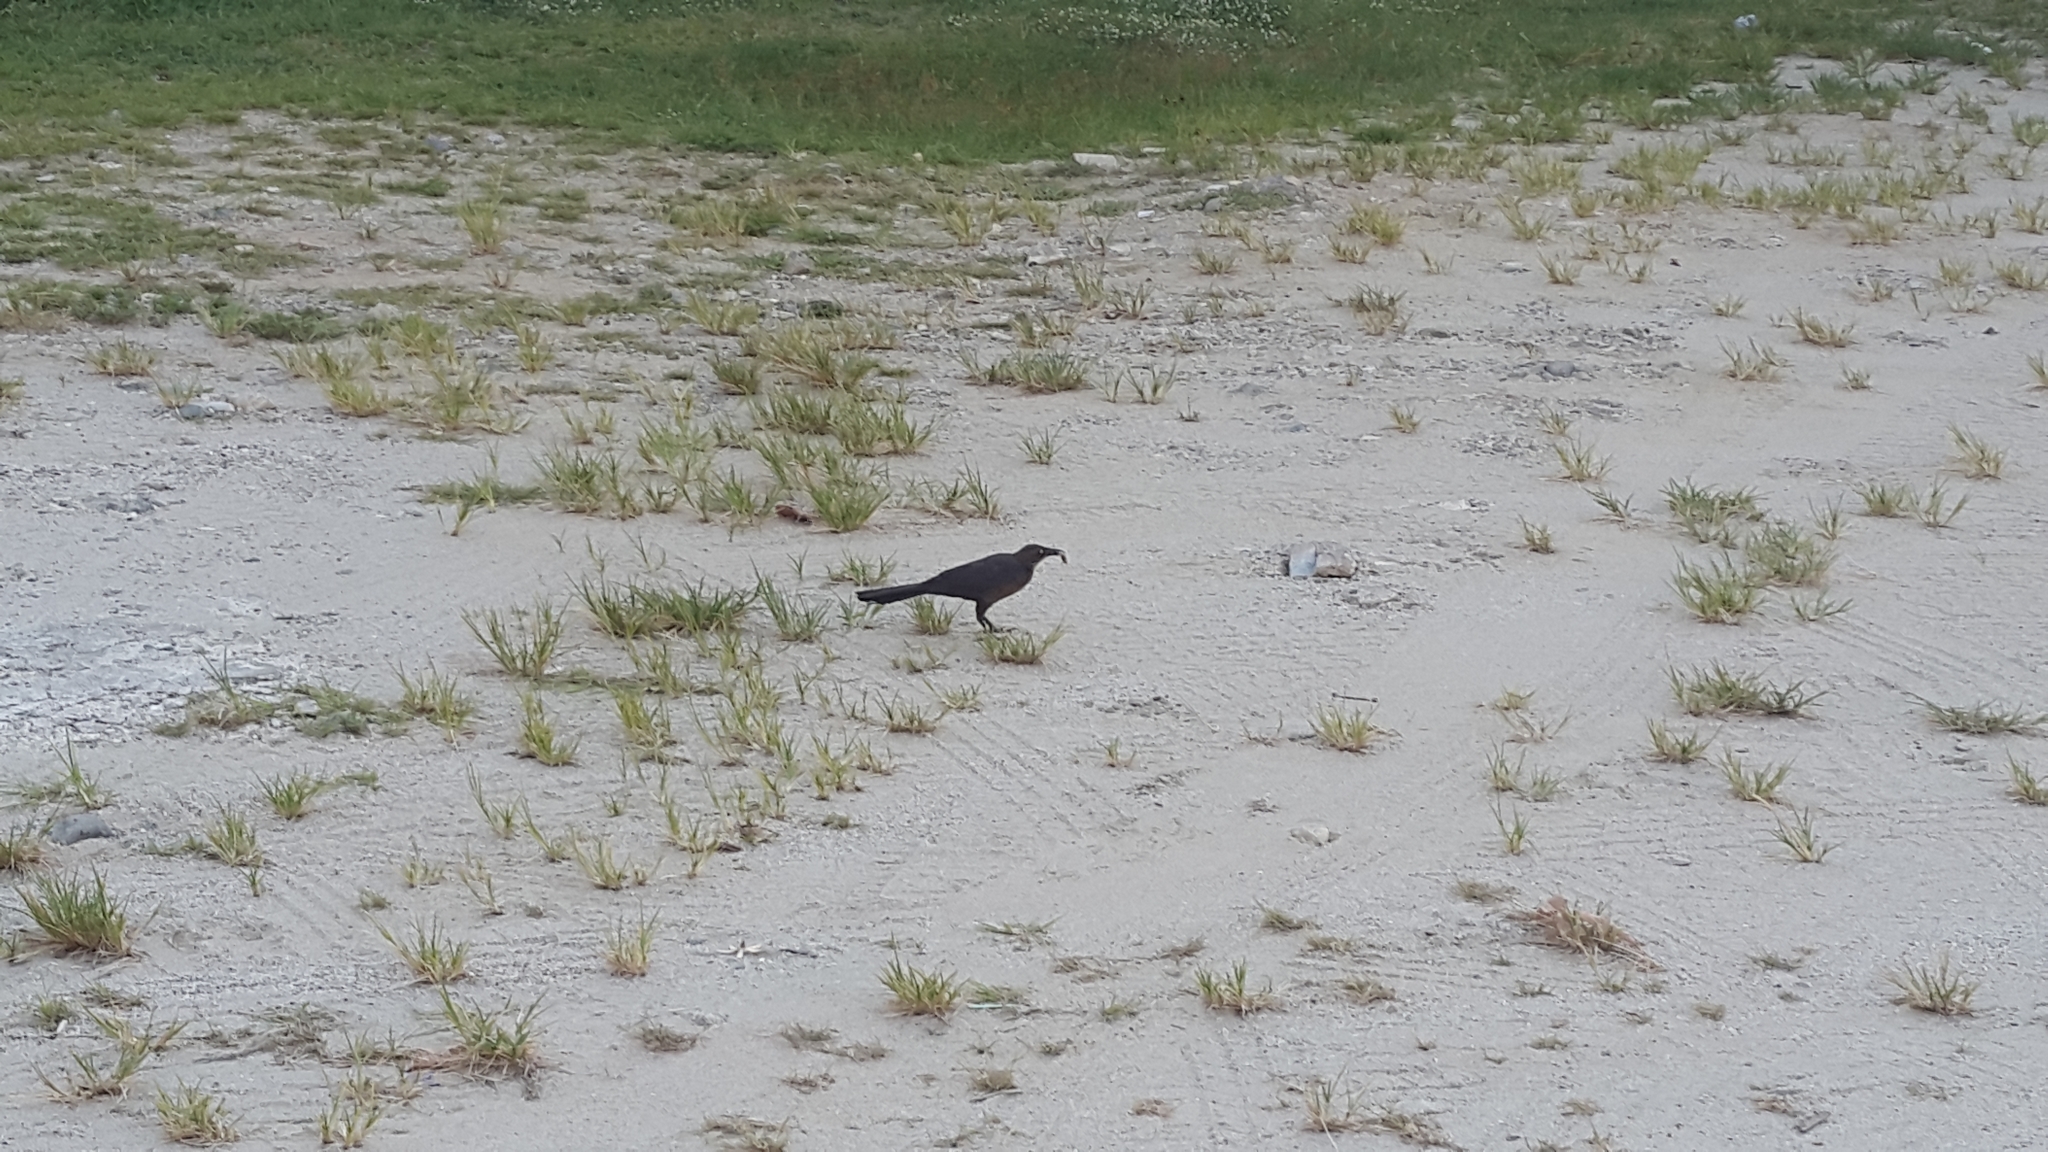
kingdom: Animalia
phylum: Chordata
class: Aves
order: Passeriformes
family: Icteridae
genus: Quiscalus
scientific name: Quiscalus mexicanus
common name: Great-tailed grackle
